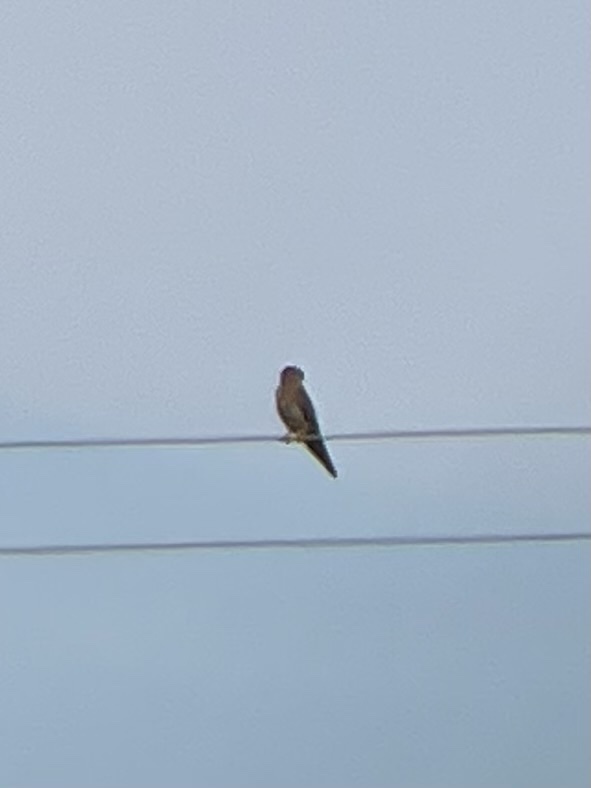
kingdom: Animalia
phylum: Chordata
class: Aves
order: Falconiformes
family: Falconidae
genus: Falco
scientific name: Falco sparverius
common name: American kestrel
